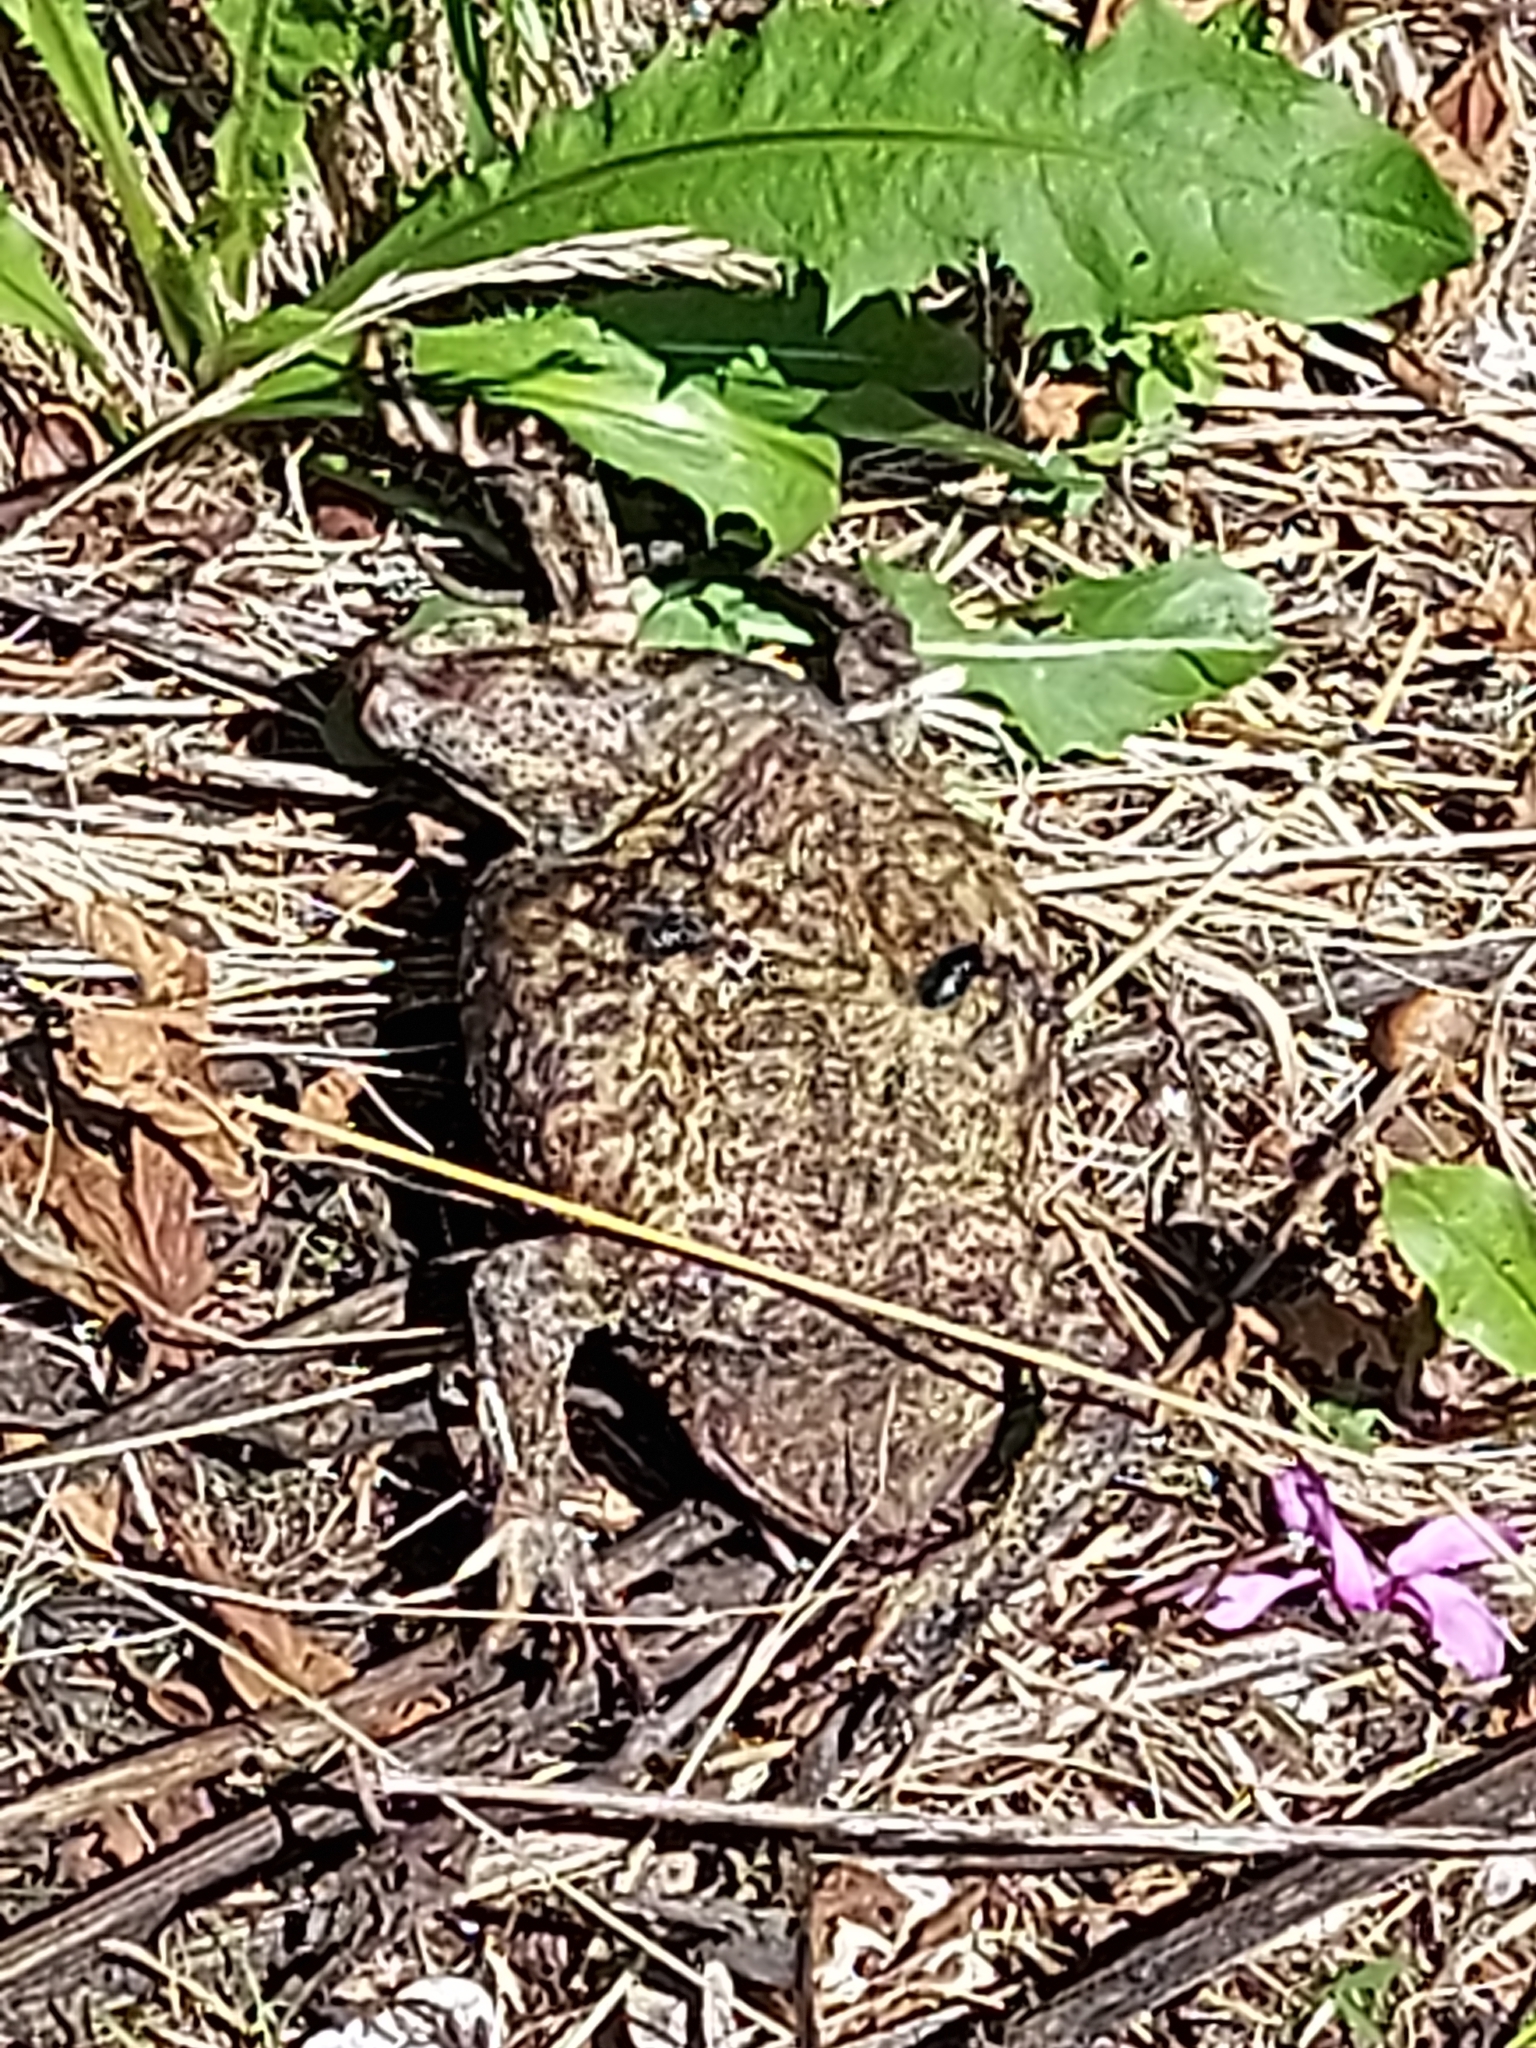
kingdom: Animalia
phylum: Chordata
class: Amphibia
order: Anura
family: Bufonidae
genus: Bufo
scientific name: Bufo bufo
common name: Common toad
